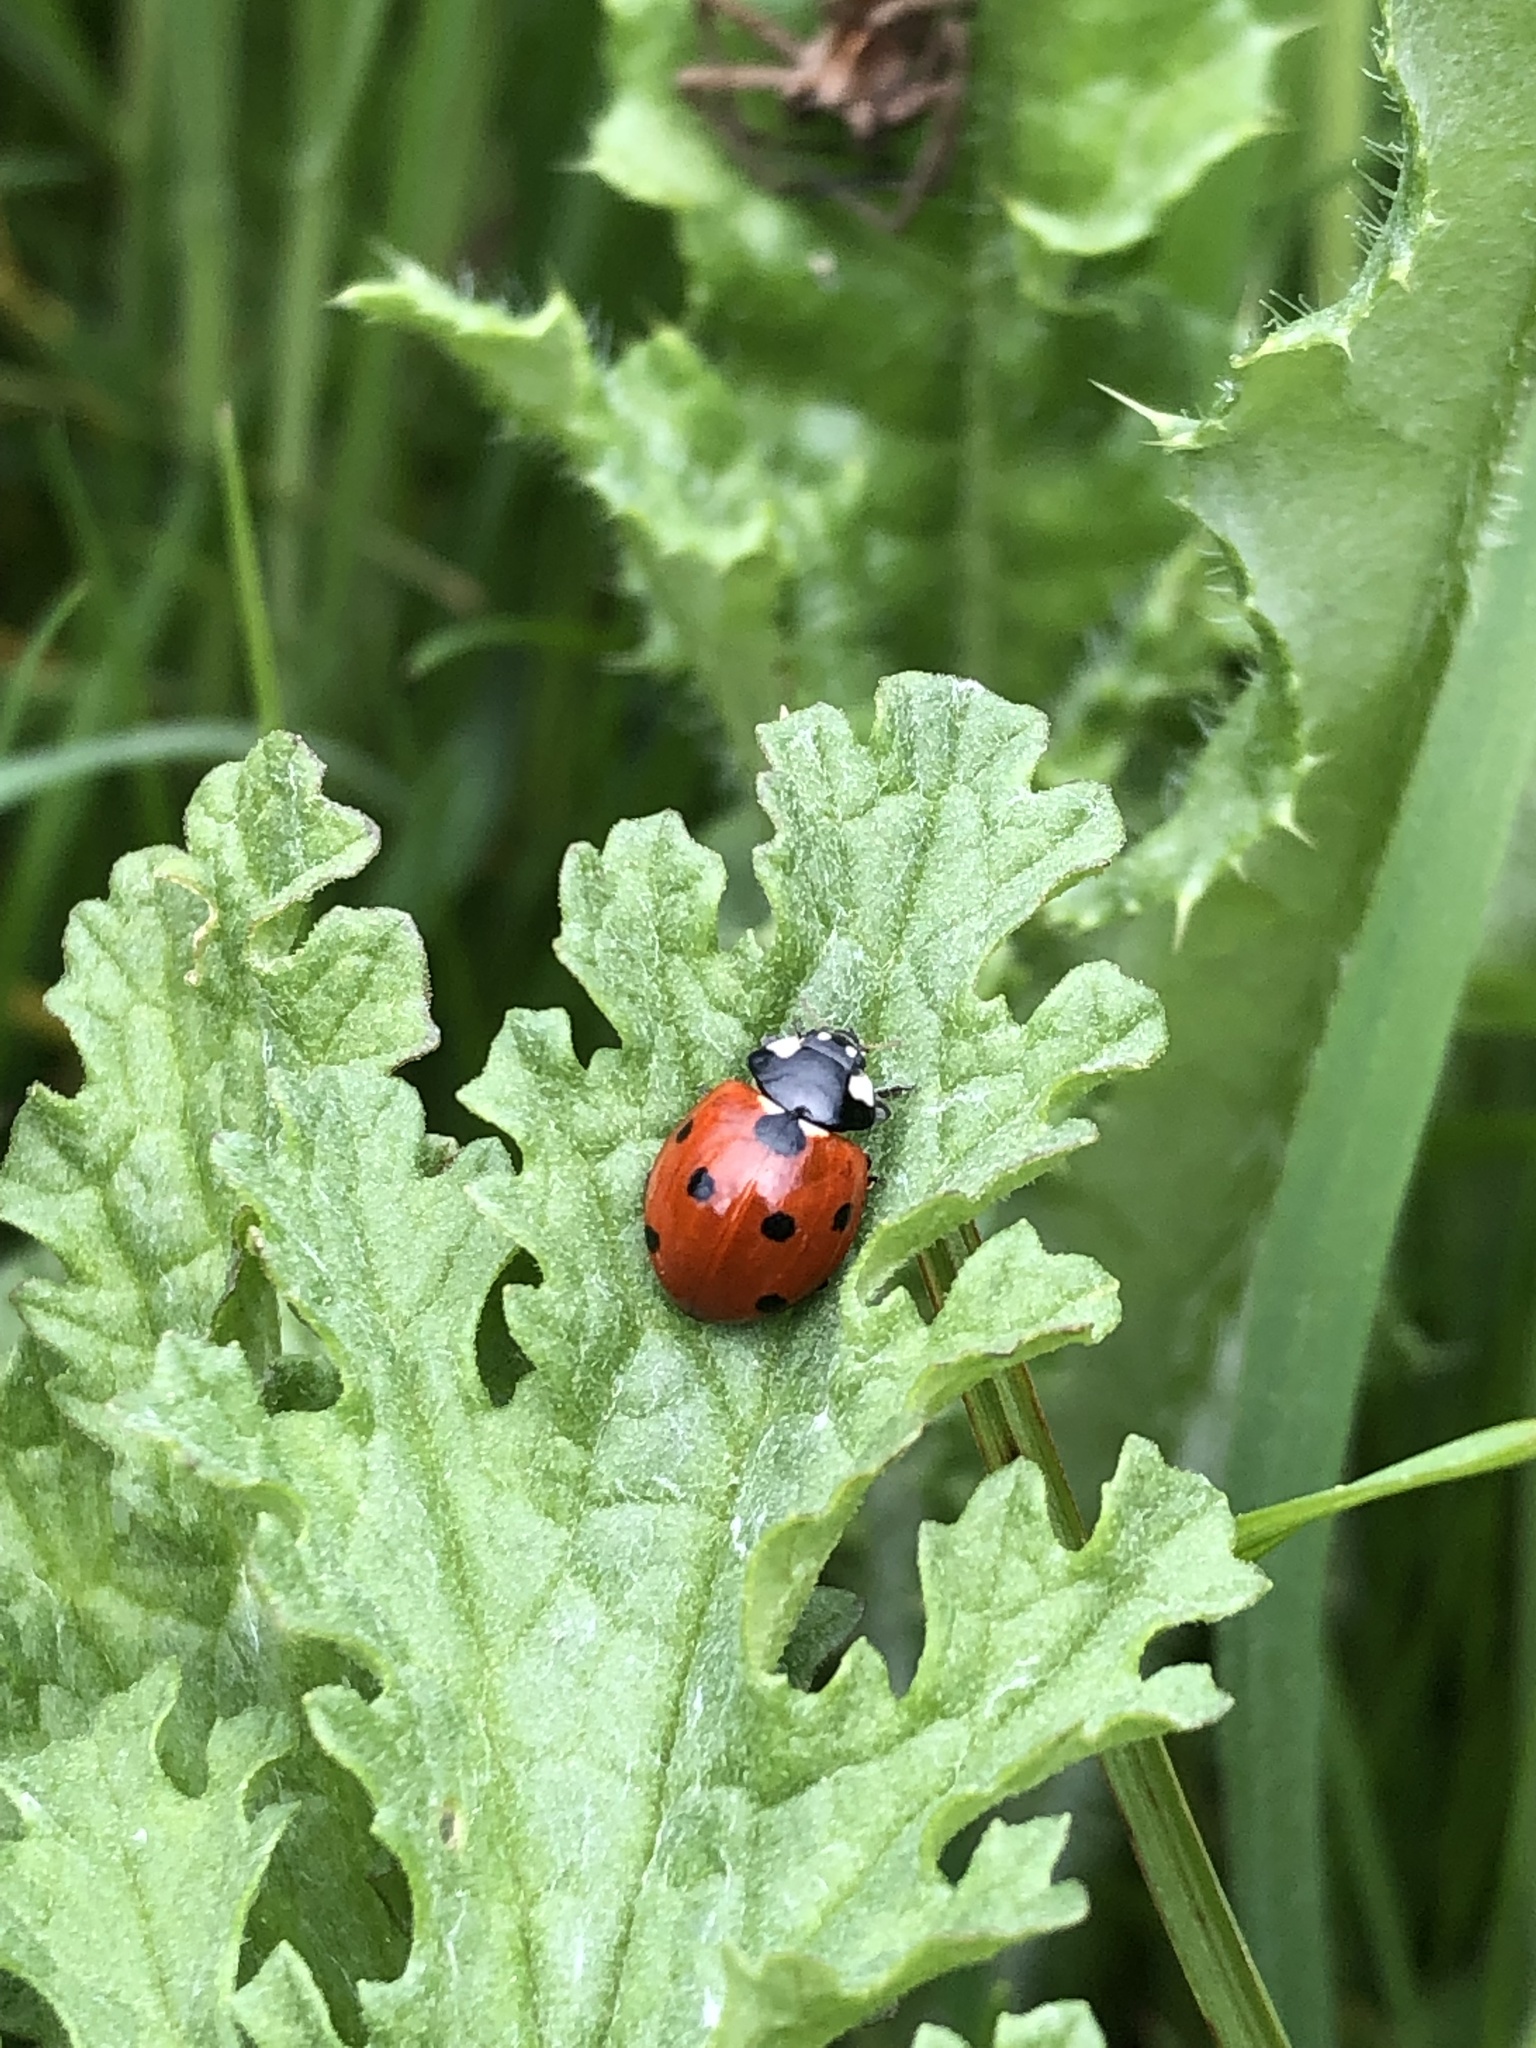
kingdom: Animalia
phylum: Arthropoda
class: Insecta
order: Coleoptera
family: Coccinellidae
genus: Coccinella
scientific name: Coccinella septempunctata
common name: Sevenspotted lady beetle
